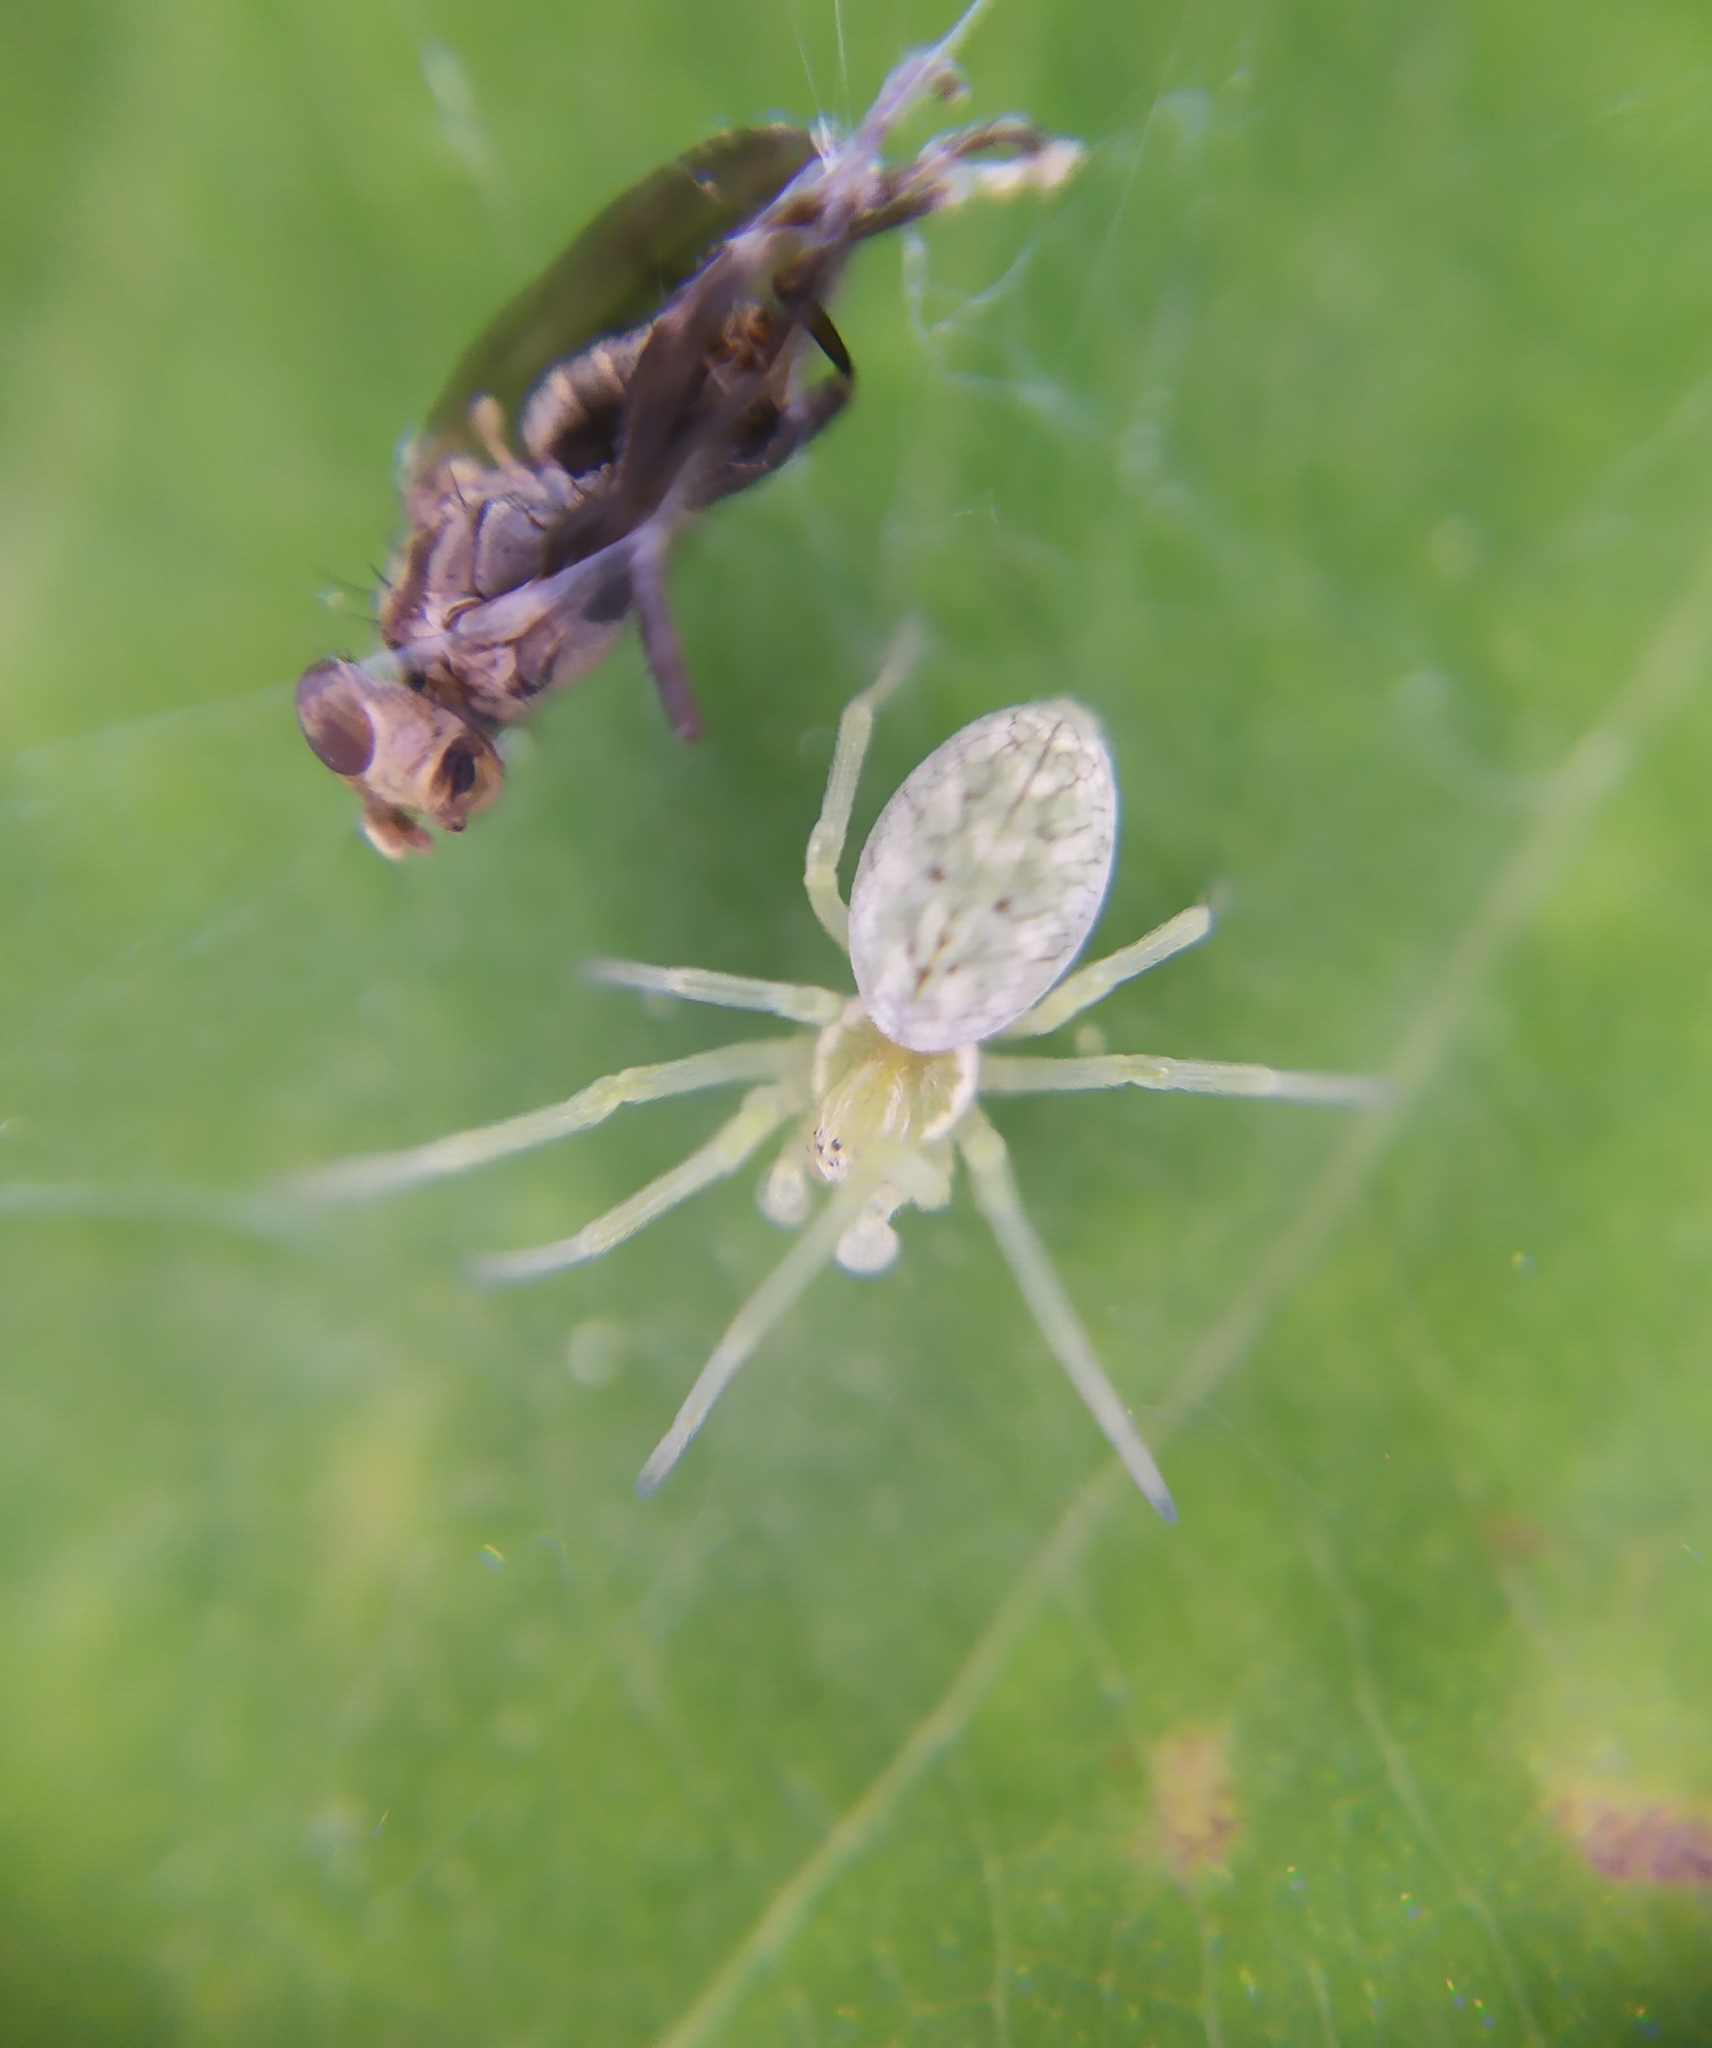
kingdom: Animalia
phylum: Arthropoda
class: Arachnida
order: Araneae
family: Dictynidae
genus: Nigma
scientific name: Nigma walckenaeri
